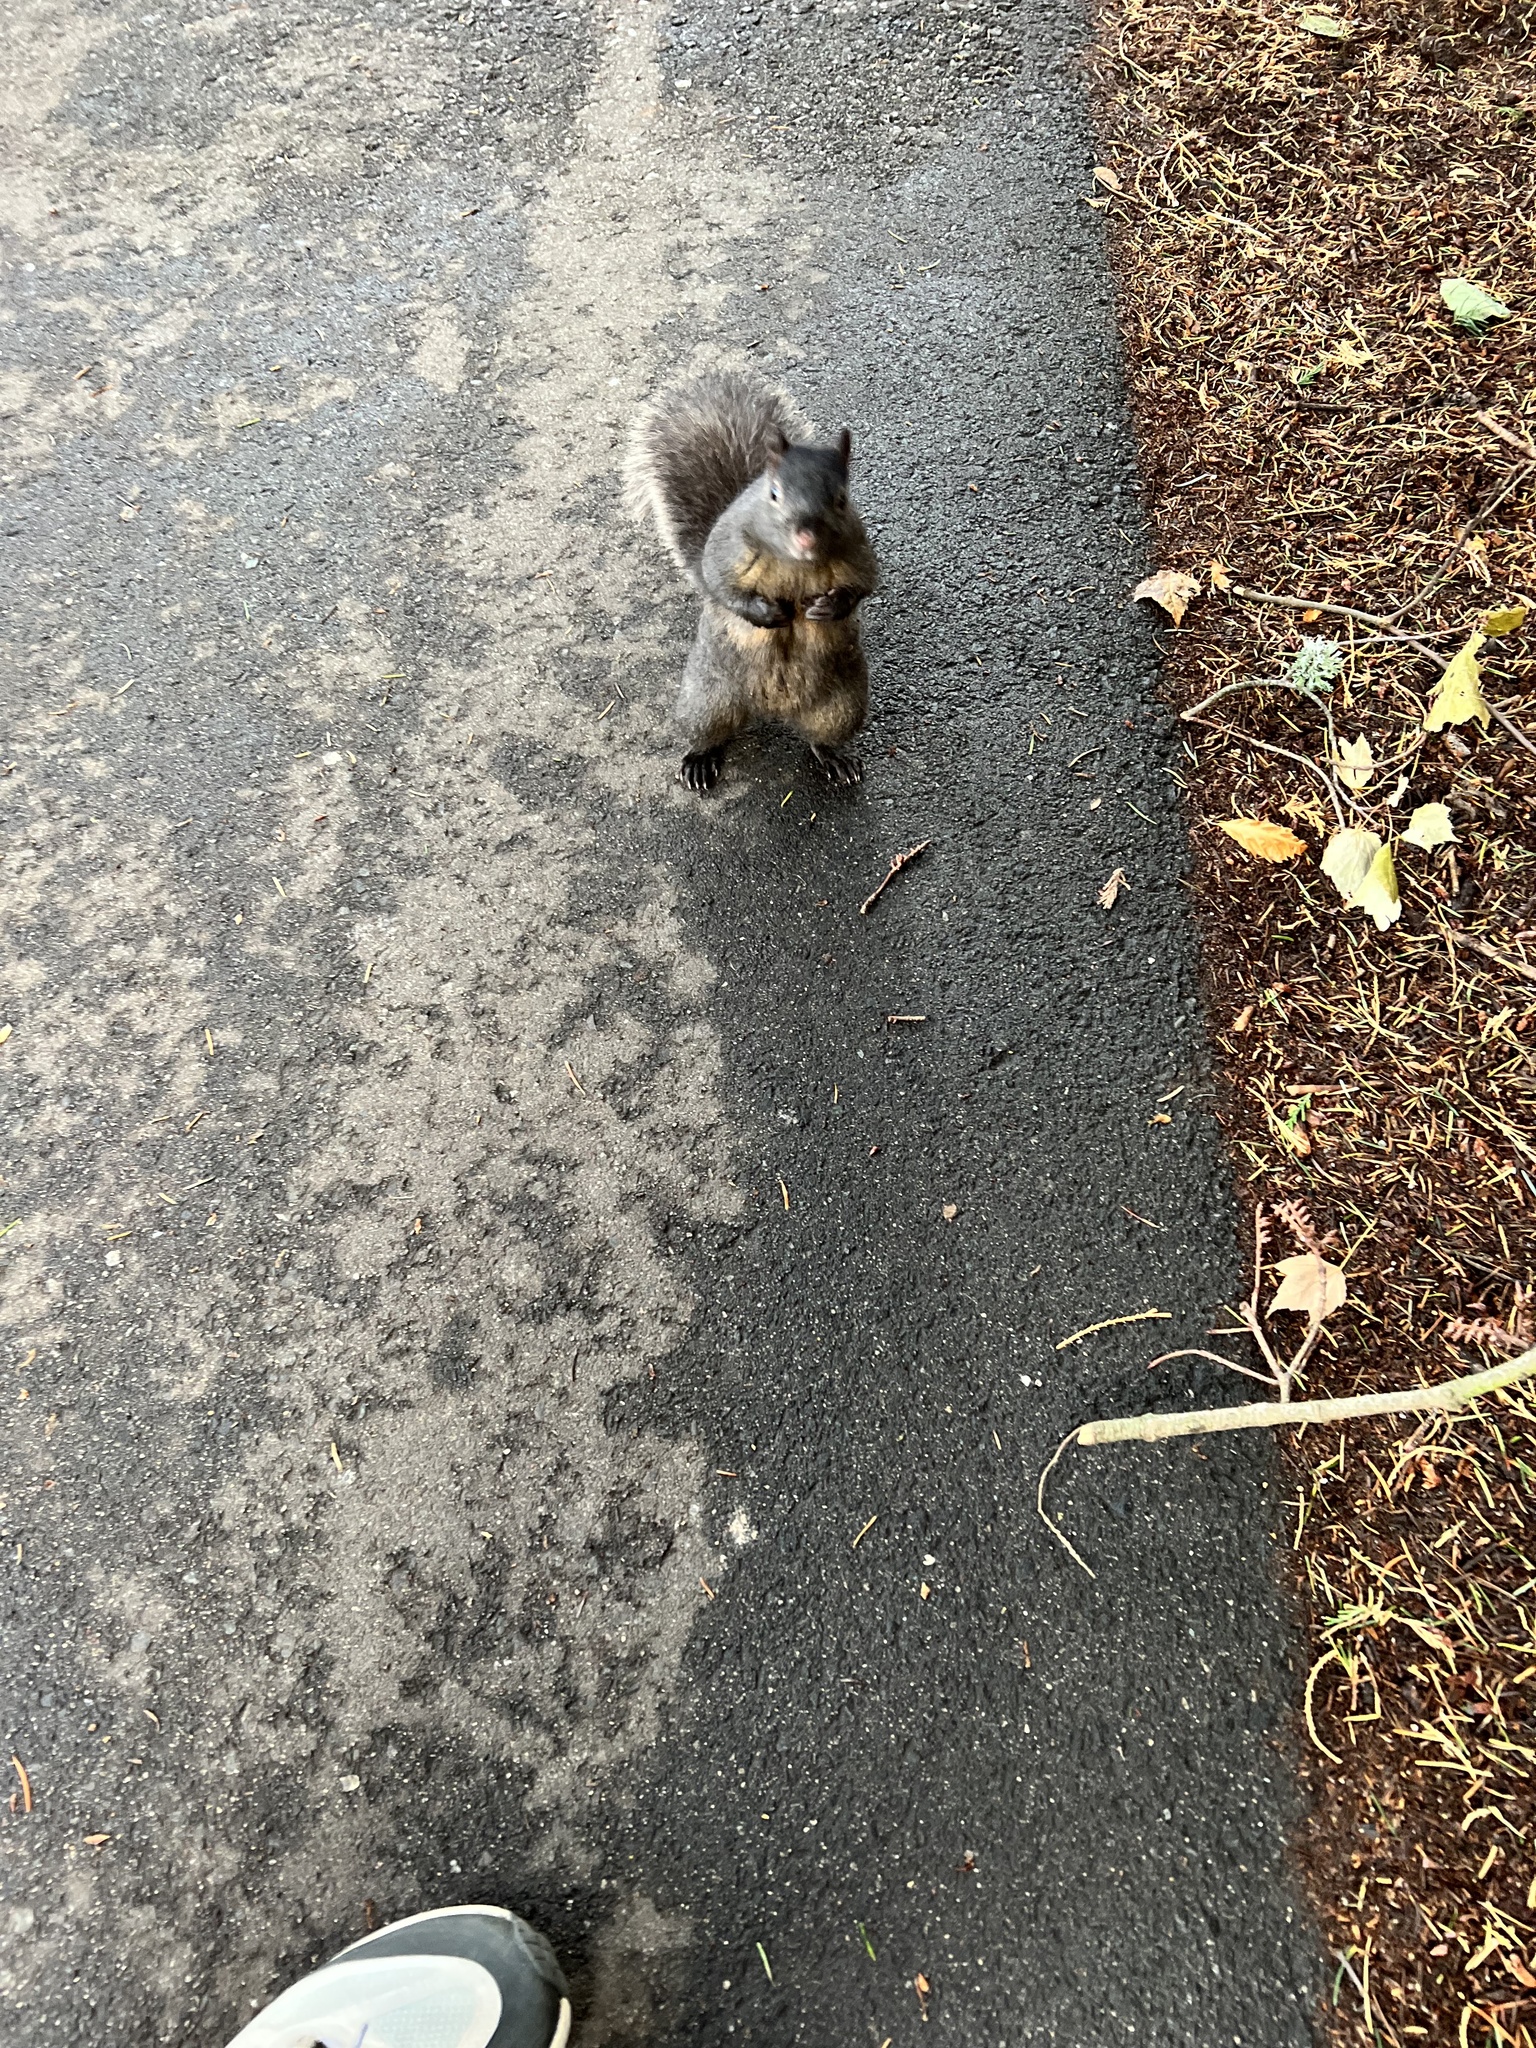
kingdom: Animalia
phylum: Chordata
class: Mammalia
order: Rodentia
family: Sciuridae
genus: Sciurus
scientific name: Sciurus carolinensis
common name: Eastern gray squirrel
